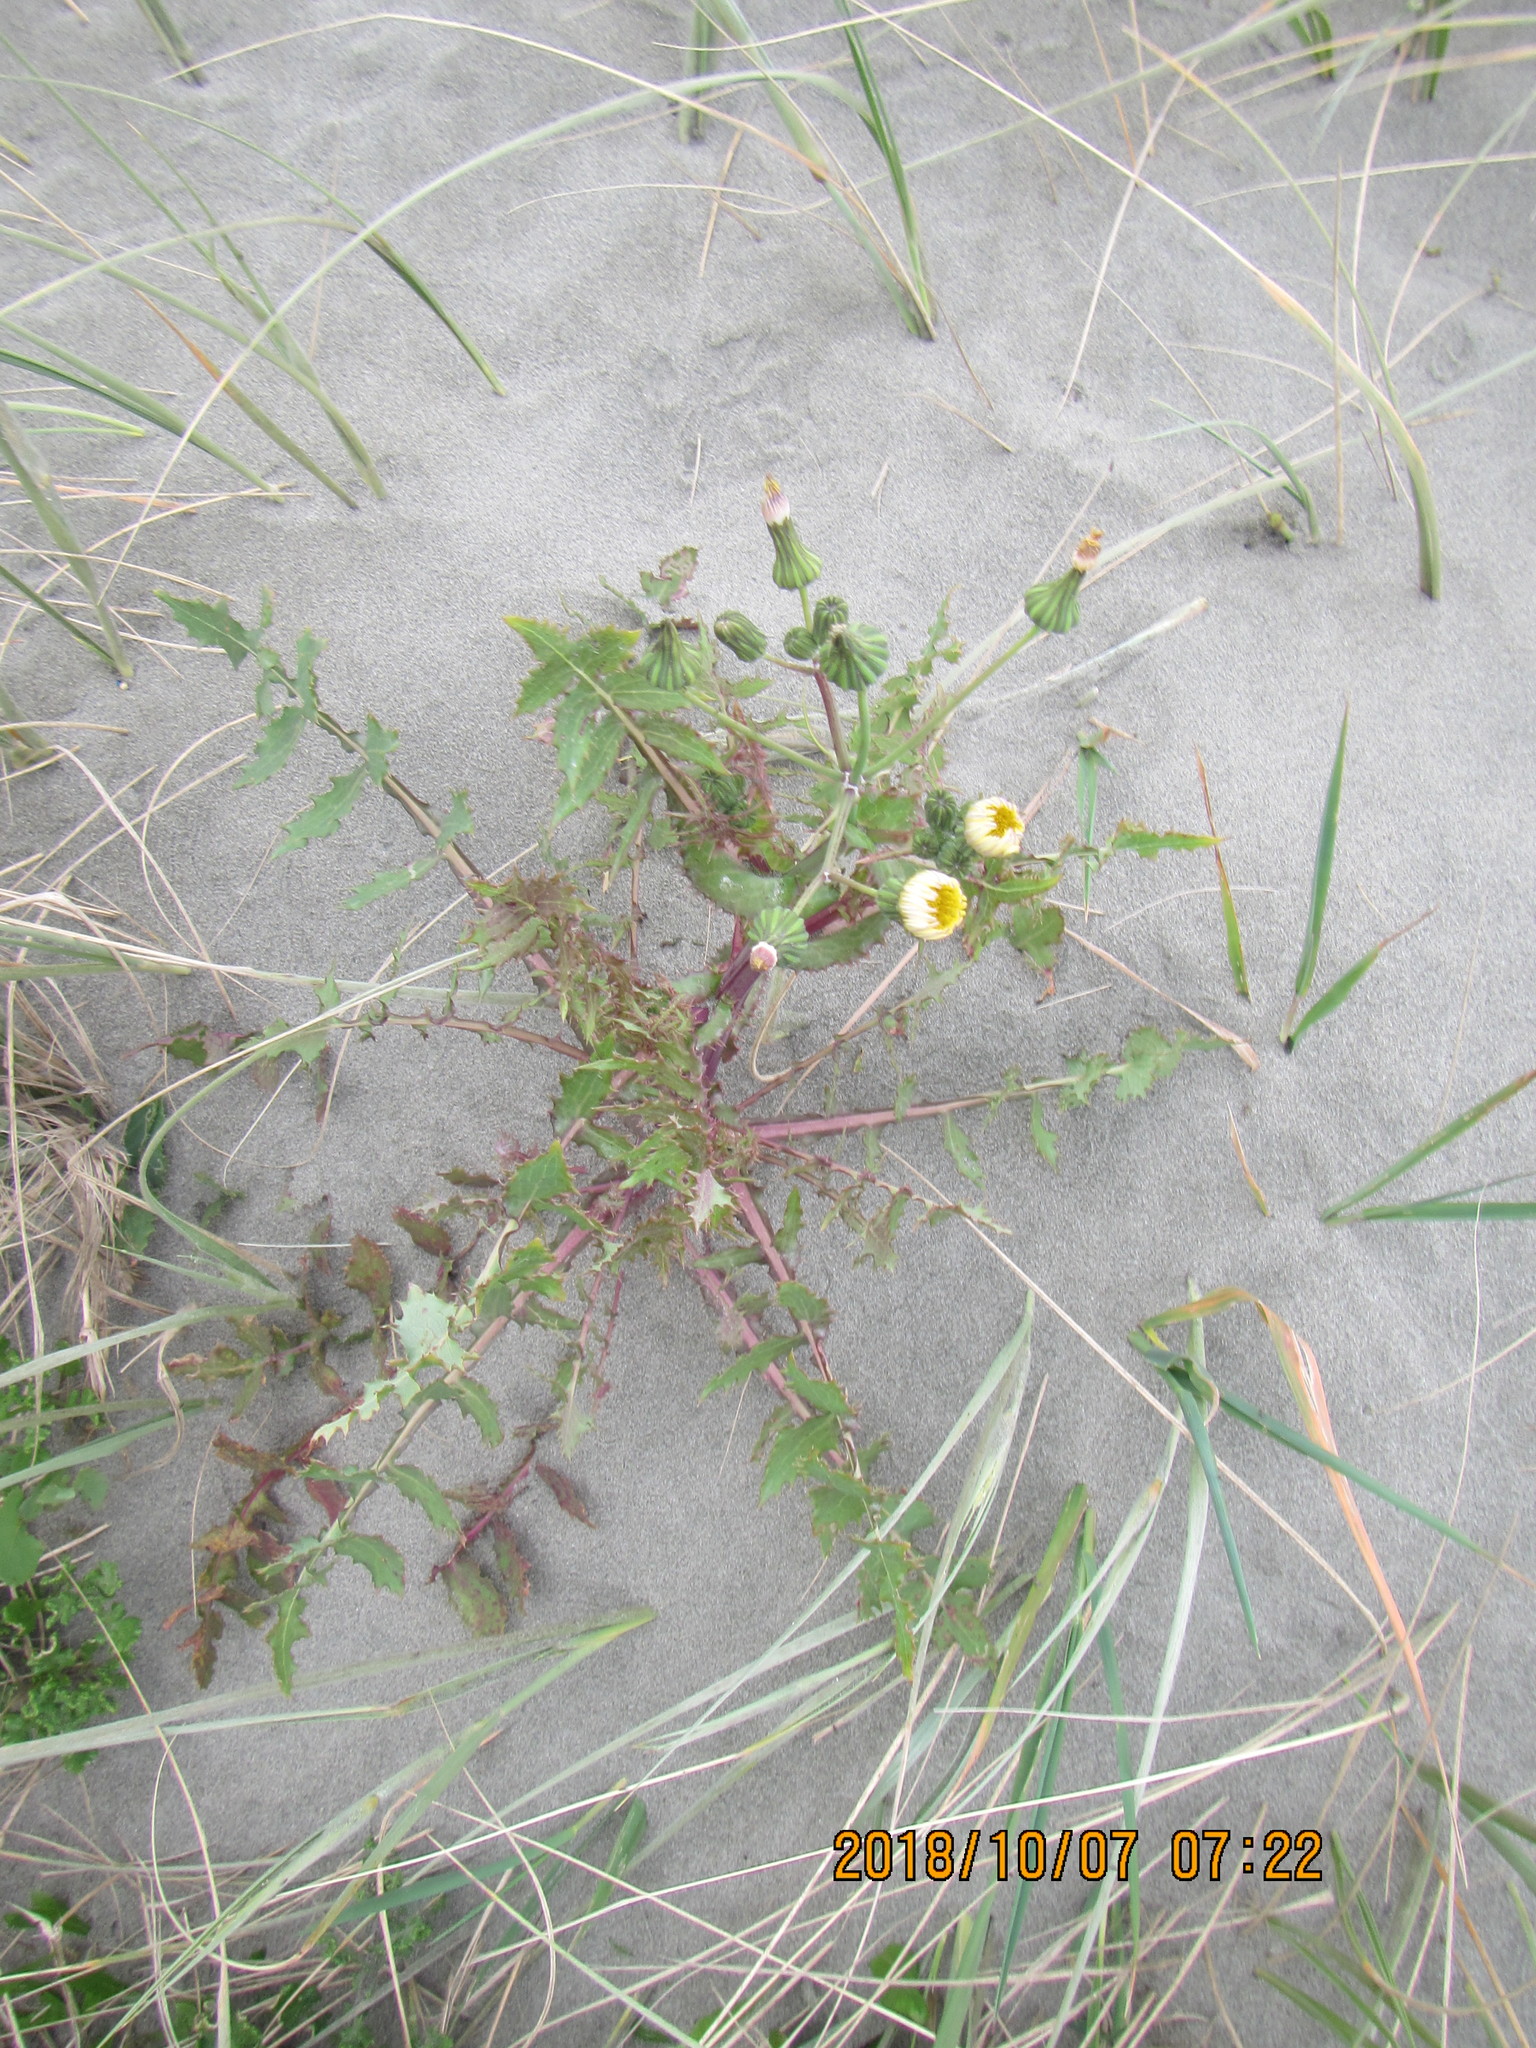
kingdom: Plantae
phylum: Tracheophyta
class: Magnoliopsida
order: Asterales
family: Asteraceae
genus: Sonchus
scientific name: Sonchus oleraceus
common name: Common sowthistle
